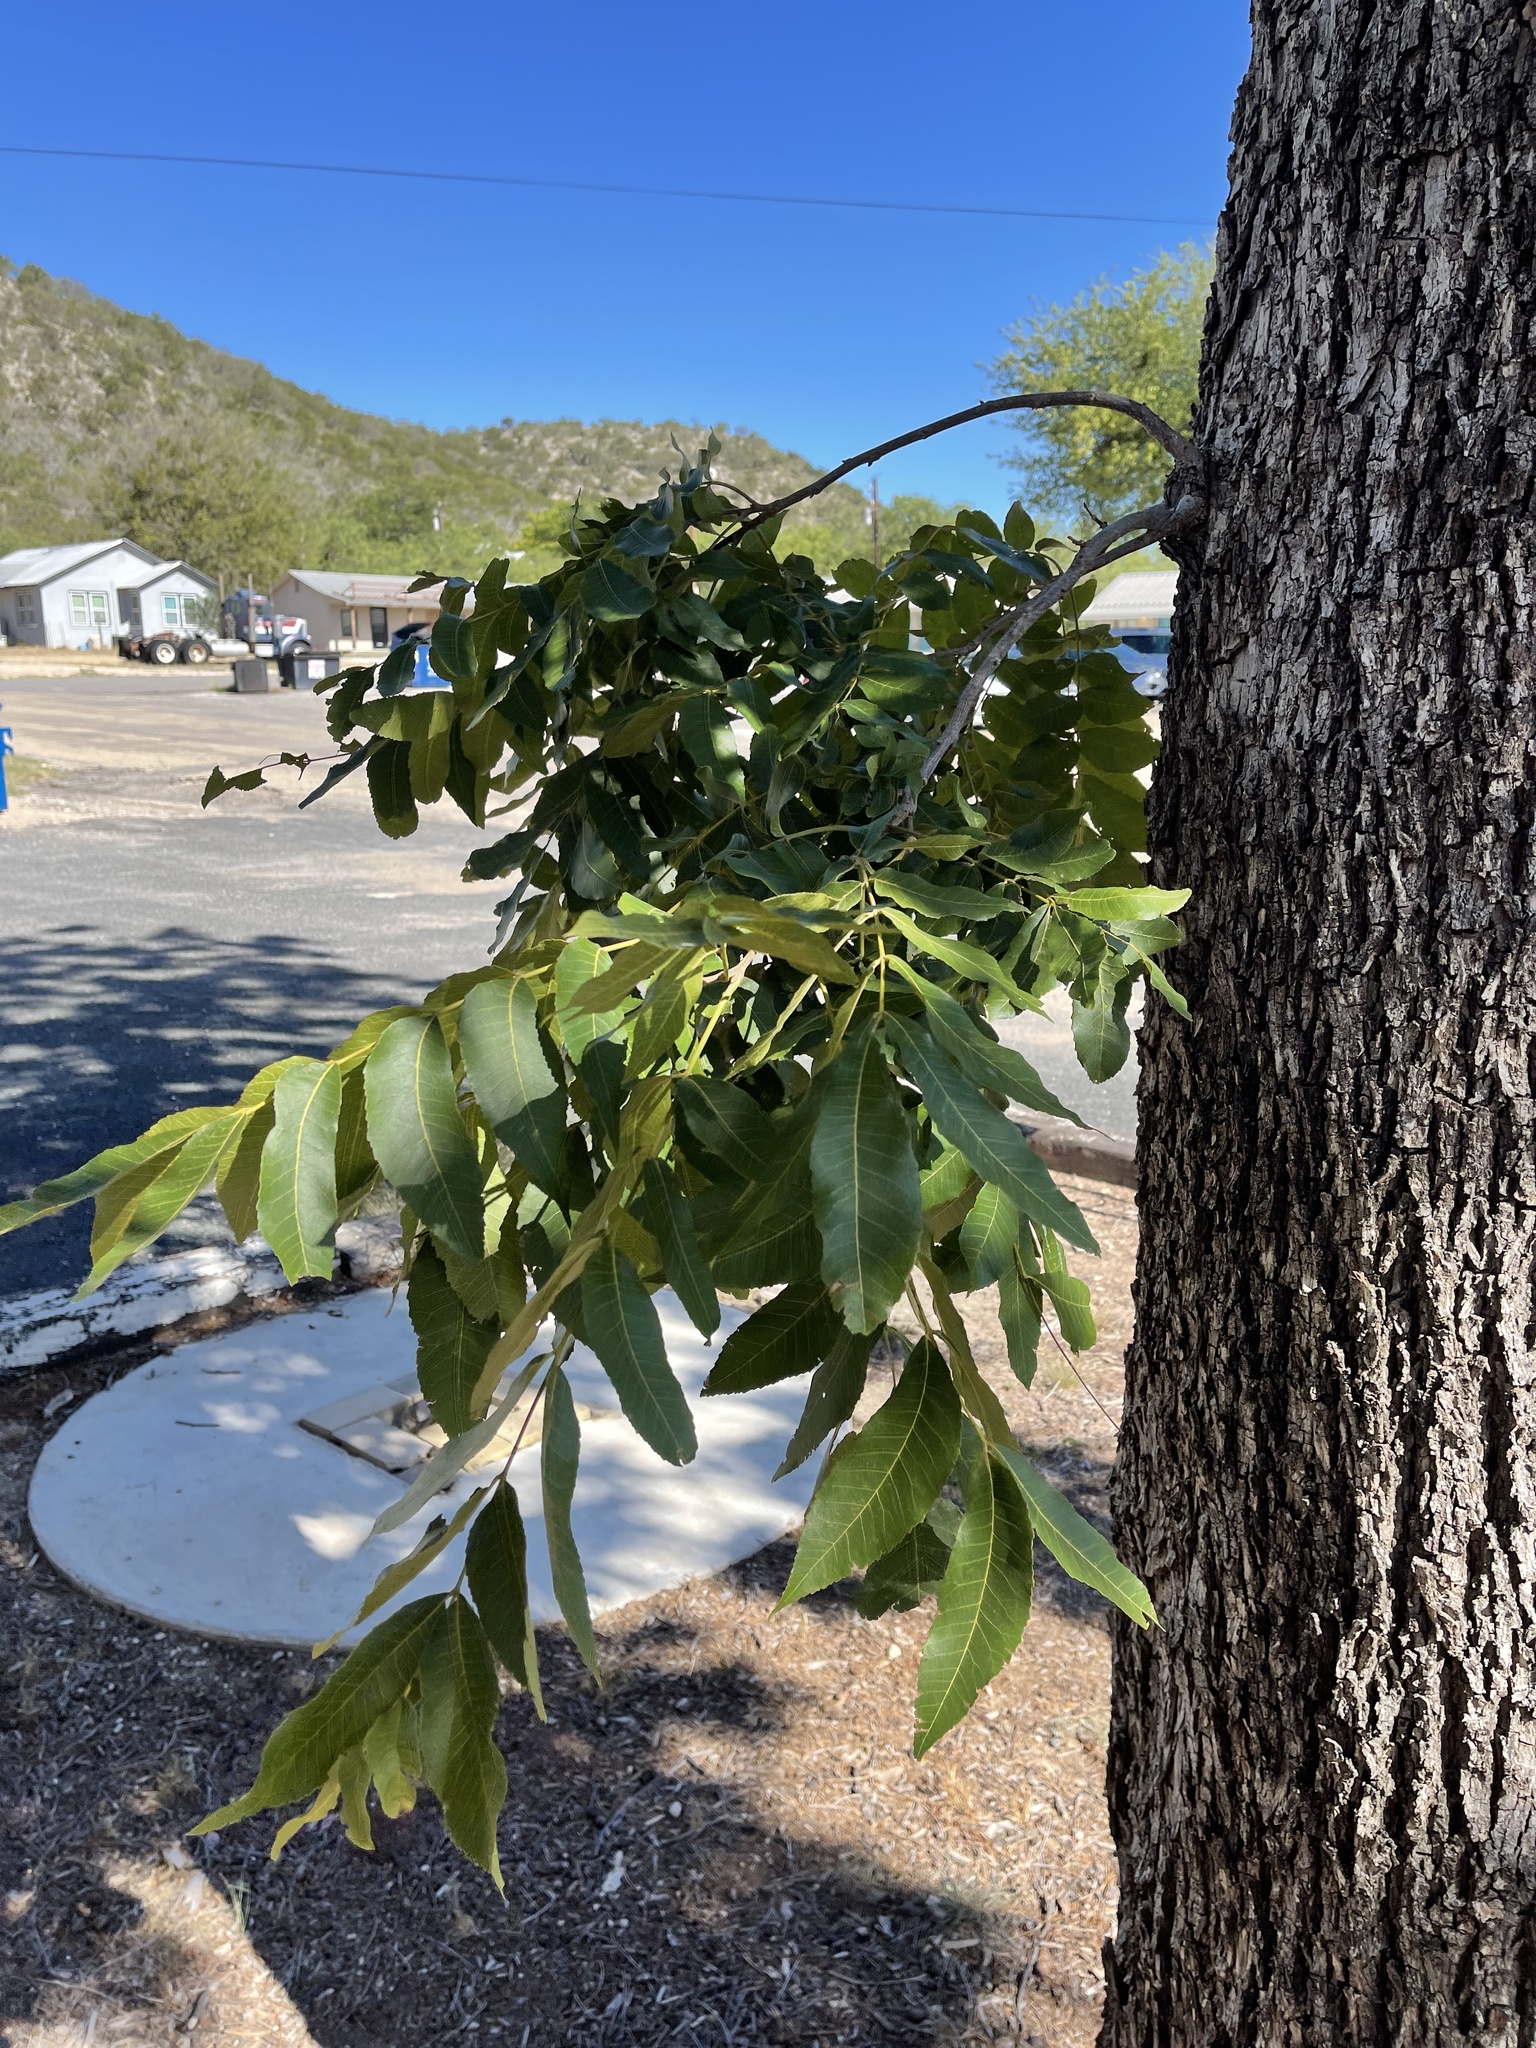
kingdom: Plantae
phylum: Tracheophyta
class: Magnoliopsida
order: Fagales
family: Juglandaceae
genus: Carya
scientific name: Carya illinoinensis
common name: Pecan
